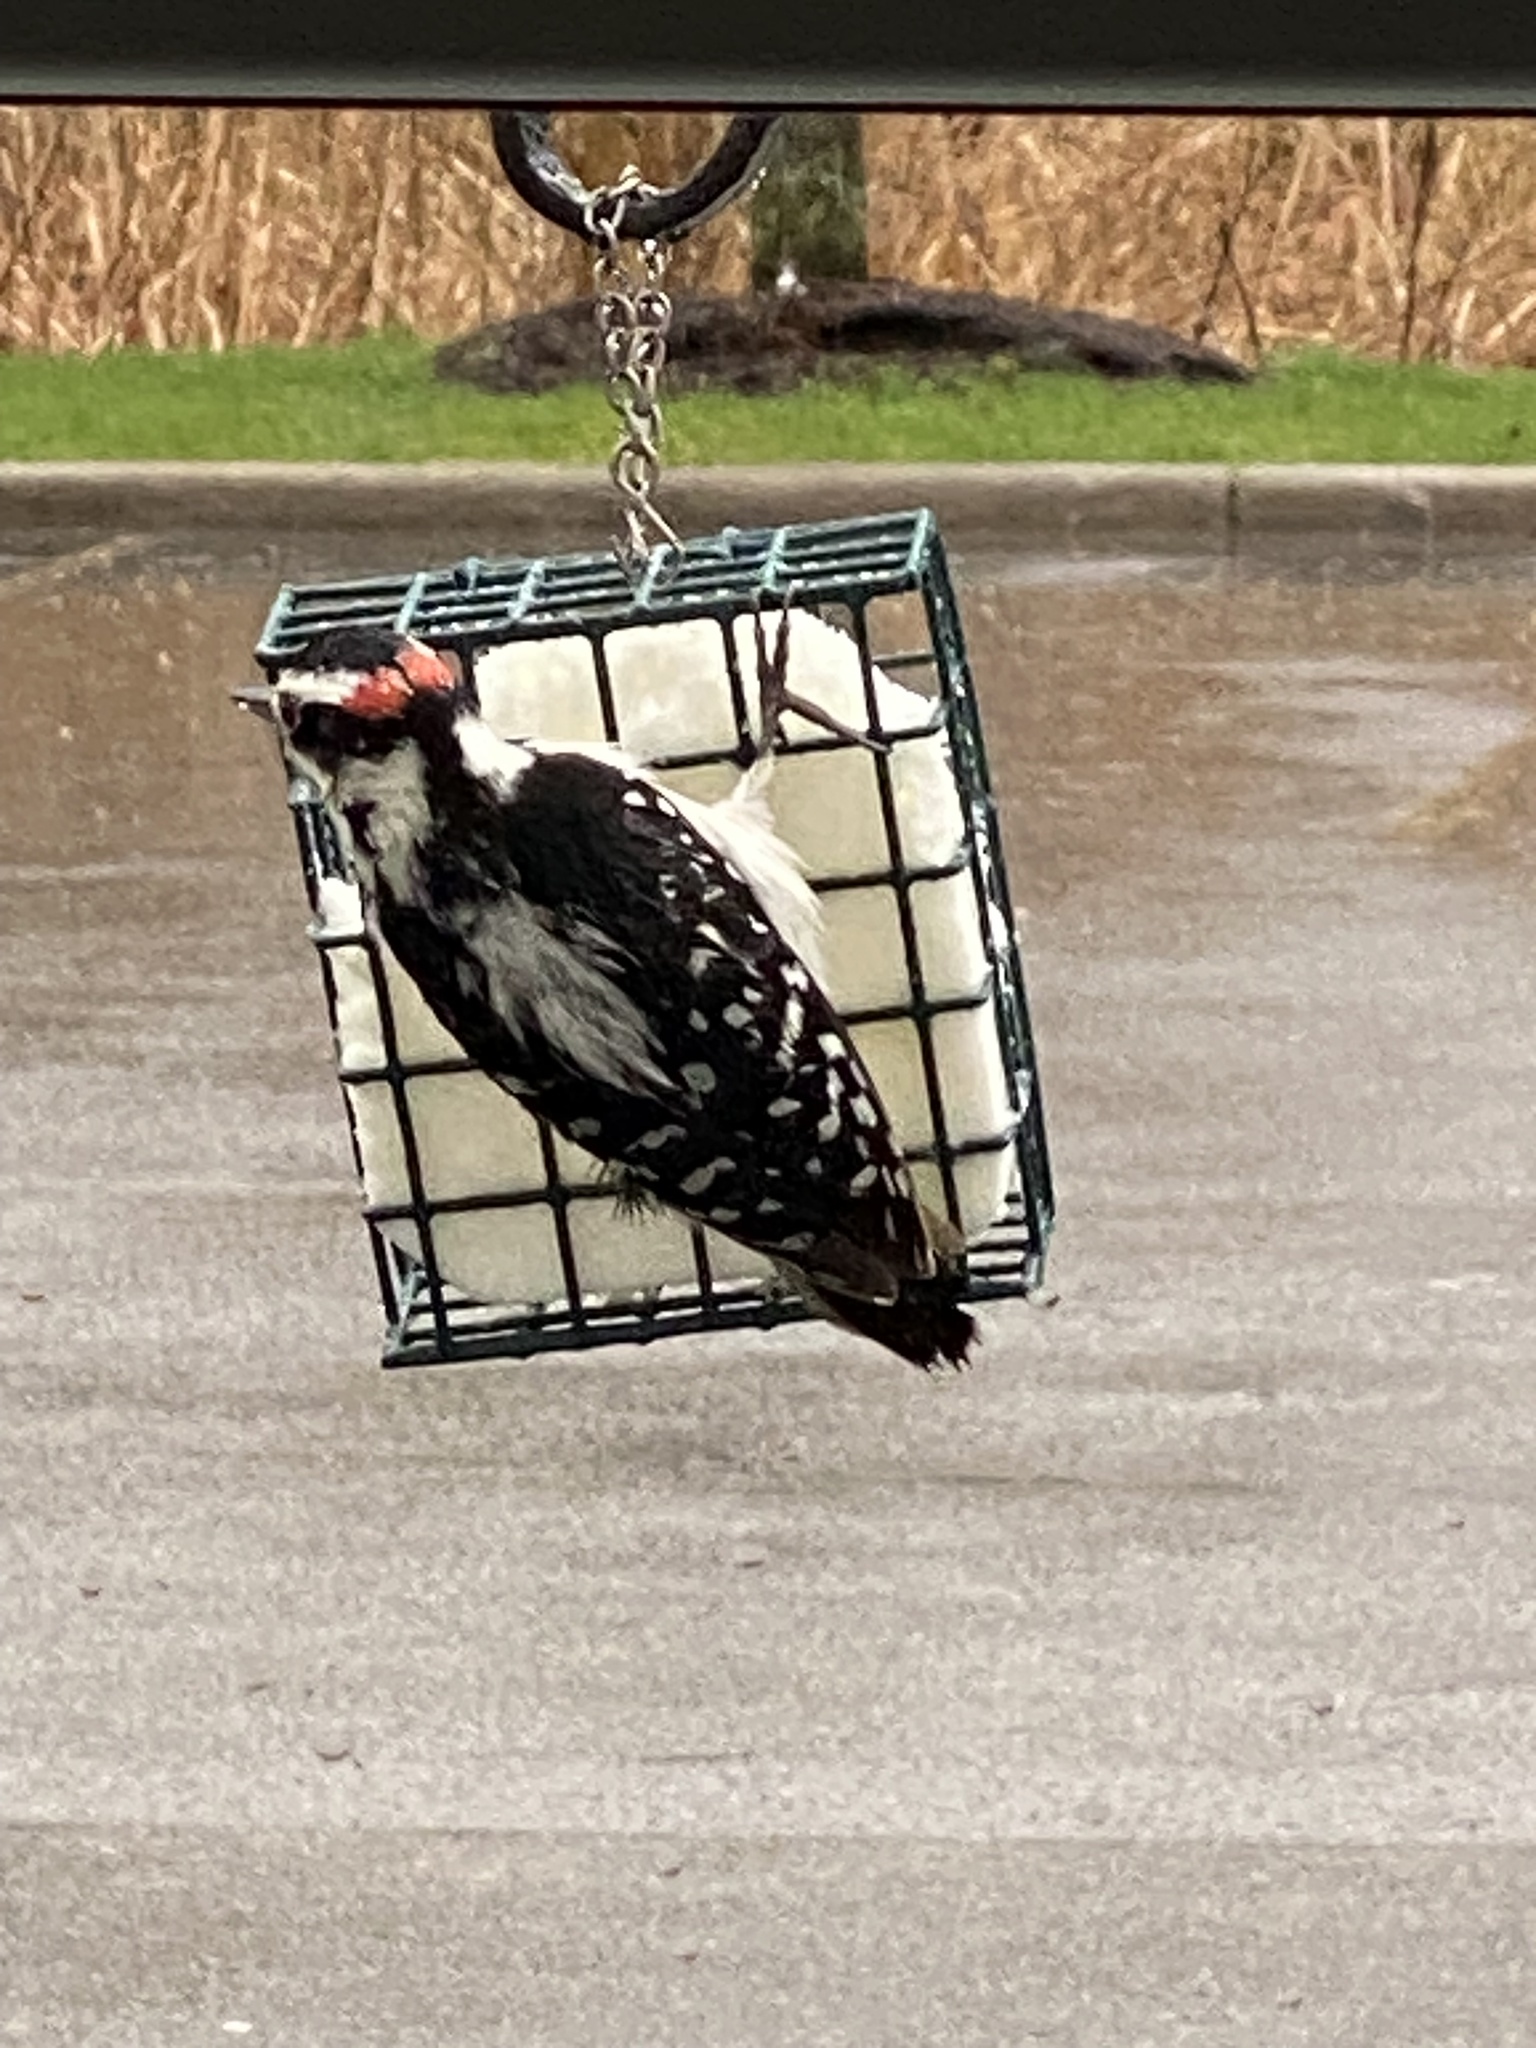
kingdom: Animalia
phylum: Chordata
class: Aves
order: Piciformes
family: Picidae
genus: Dryobates
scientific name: Dryobates pubescens
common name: Downy woodpecker
